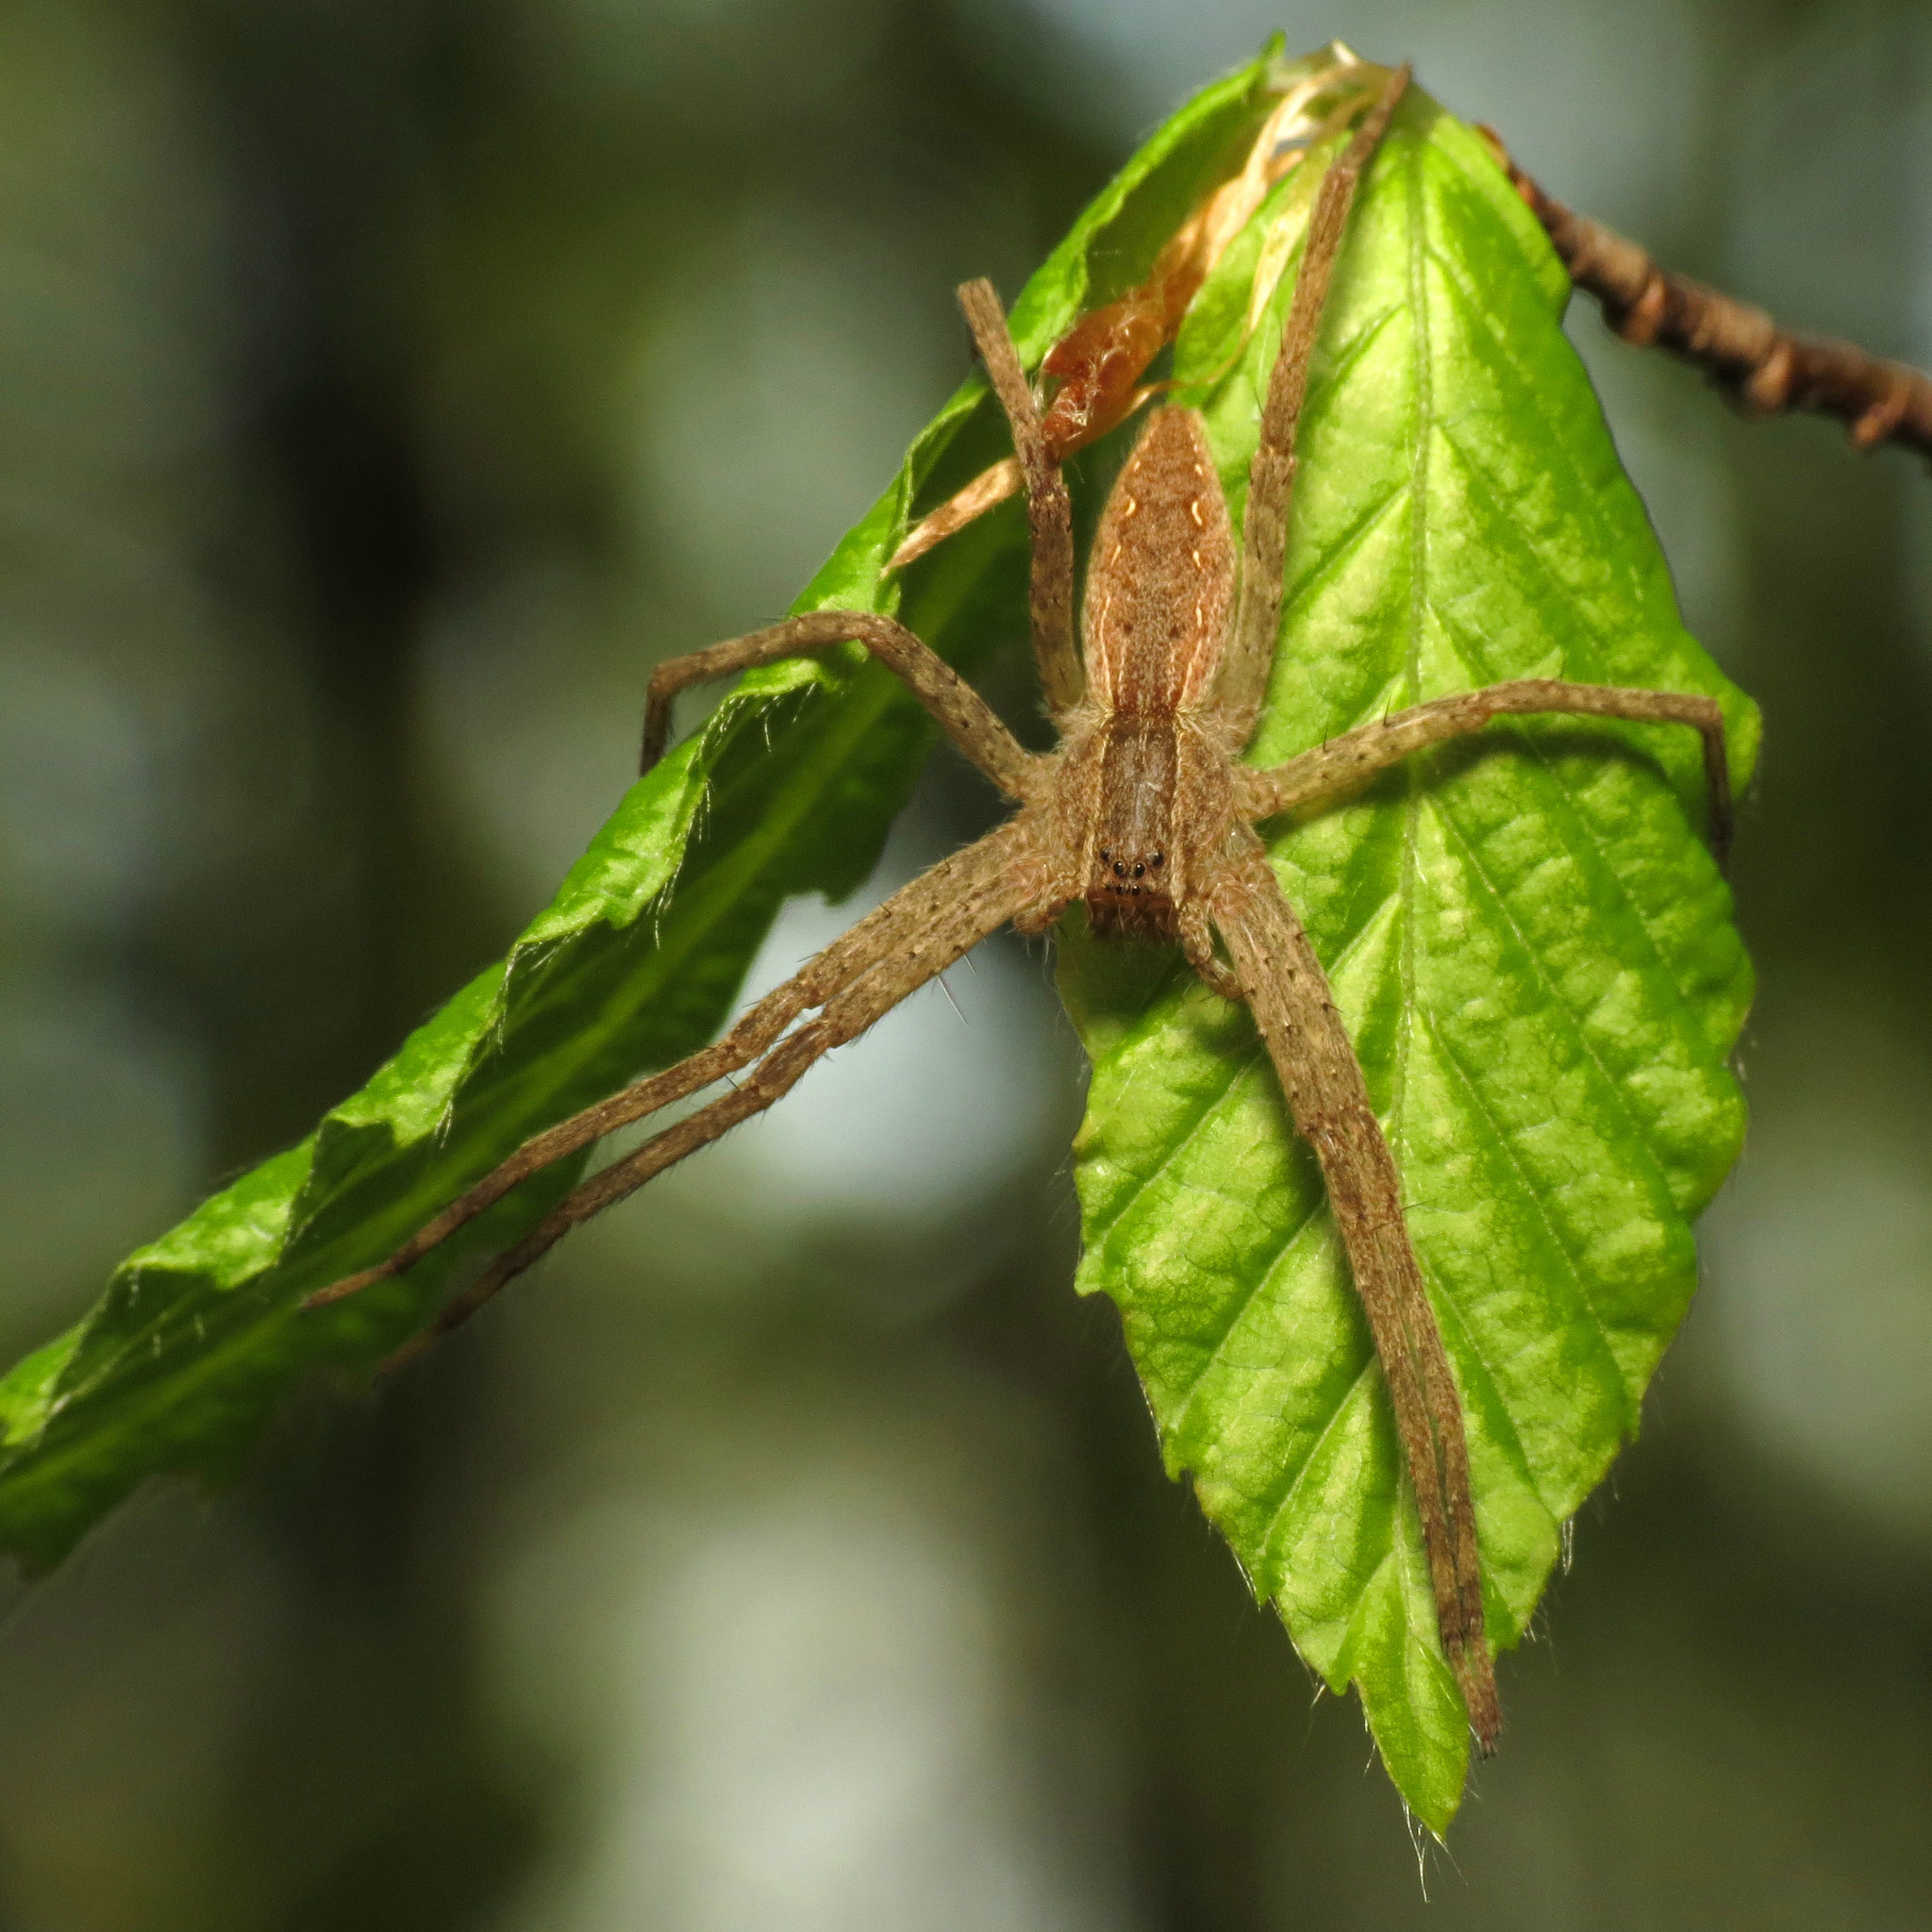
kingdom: Animalia
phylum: Arthropoda
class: Arachnida
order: Araneae
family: Pisauridae
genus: Pisaurina
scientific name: Pisaurina mira
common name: American nursery web spider
